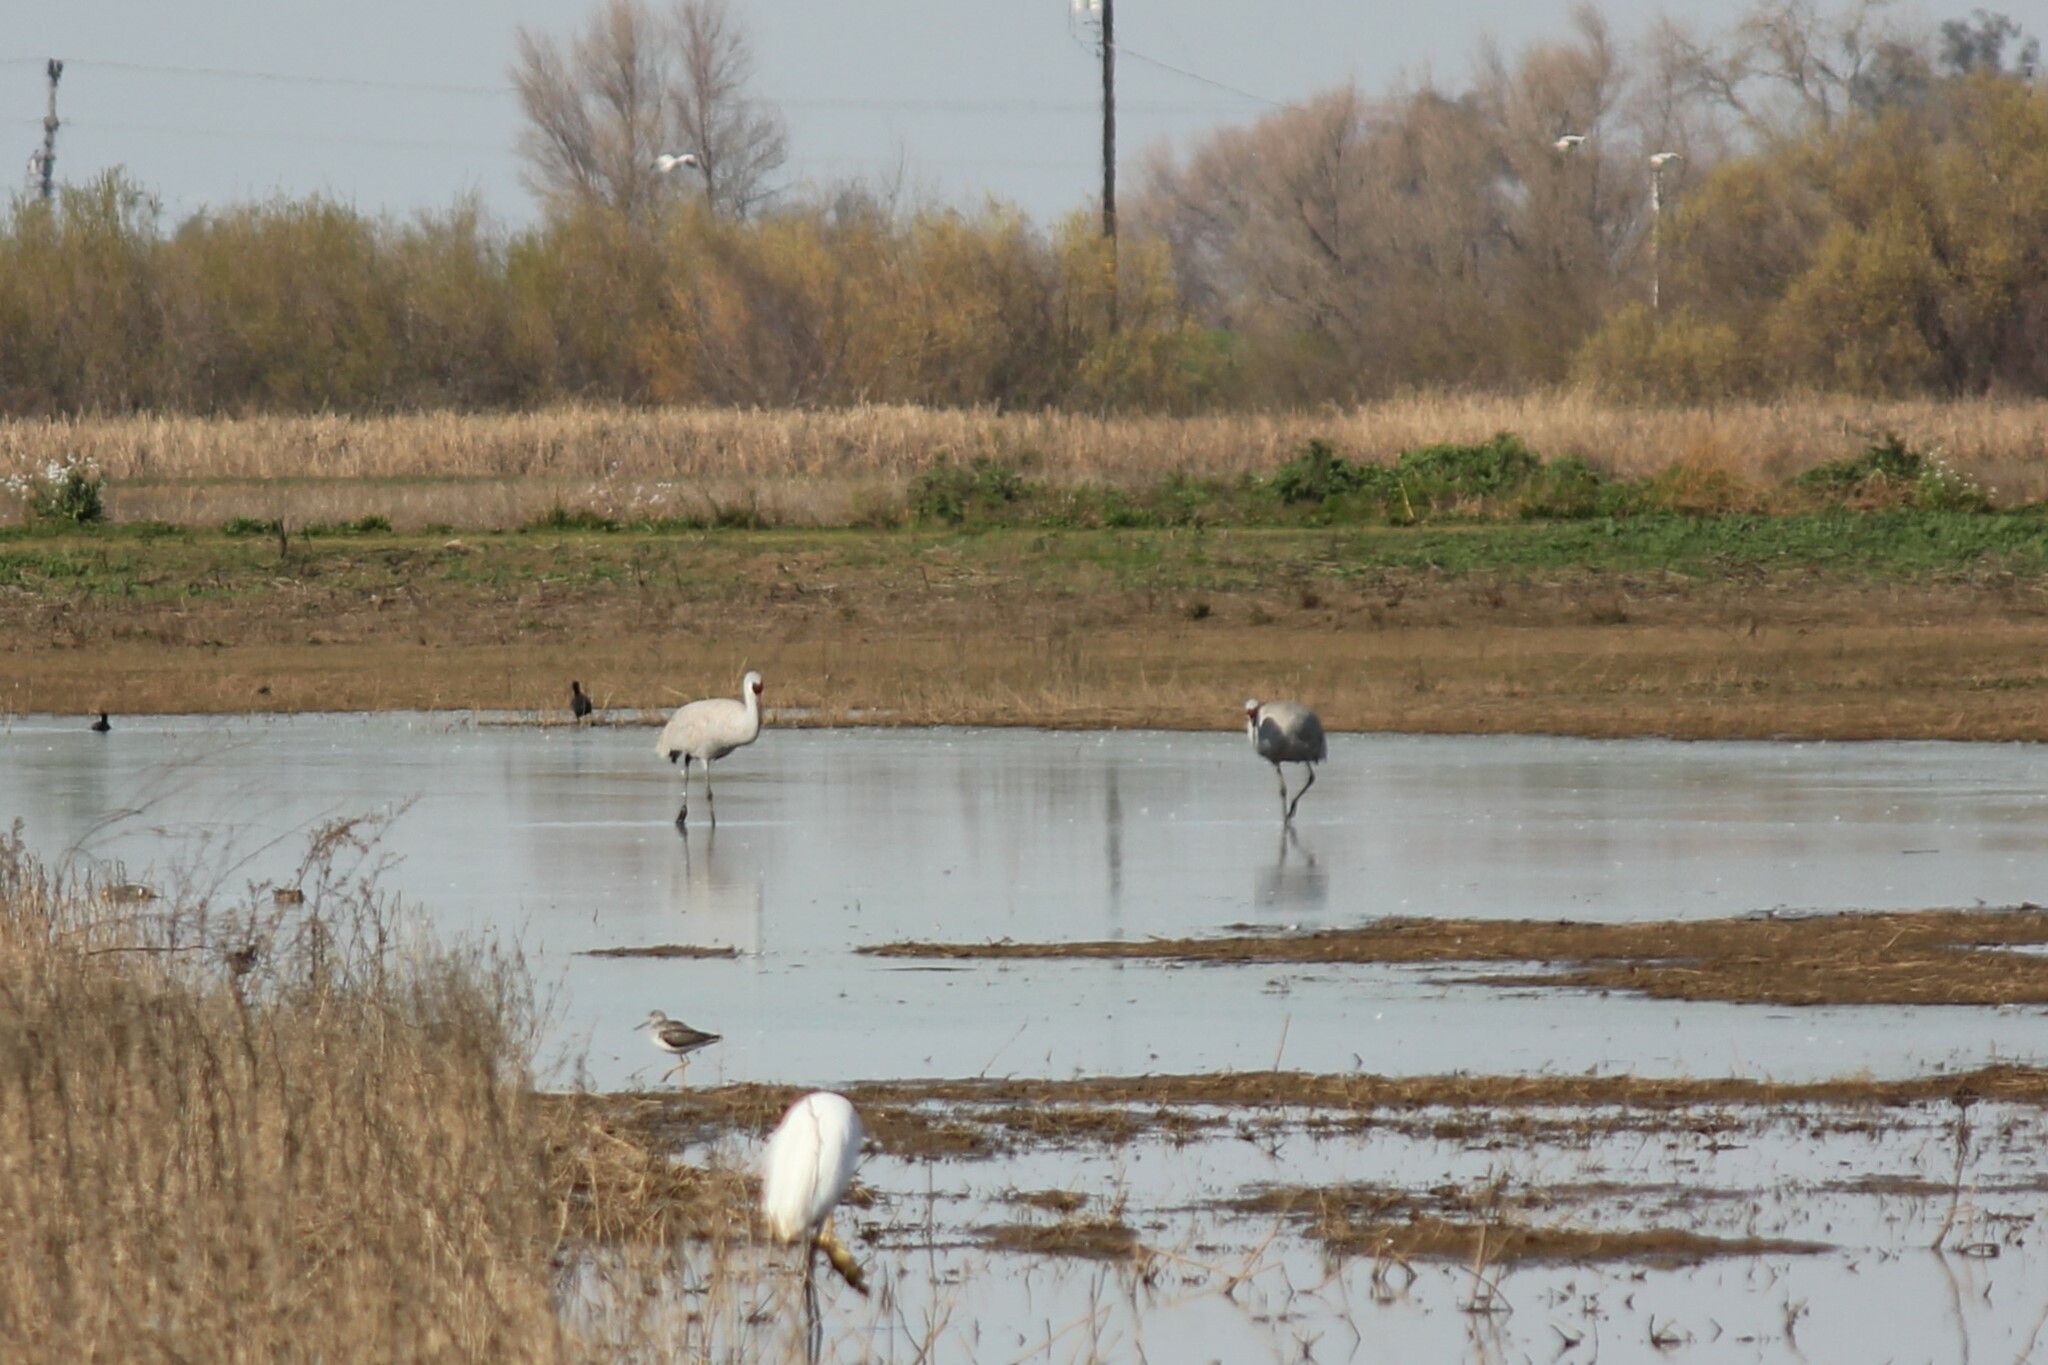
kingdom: Animalia
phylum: Chordata
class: Aves
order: Gruiformes
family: Gruidae
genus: Grus
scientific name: Grus canadensis
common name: Sandhill crane
